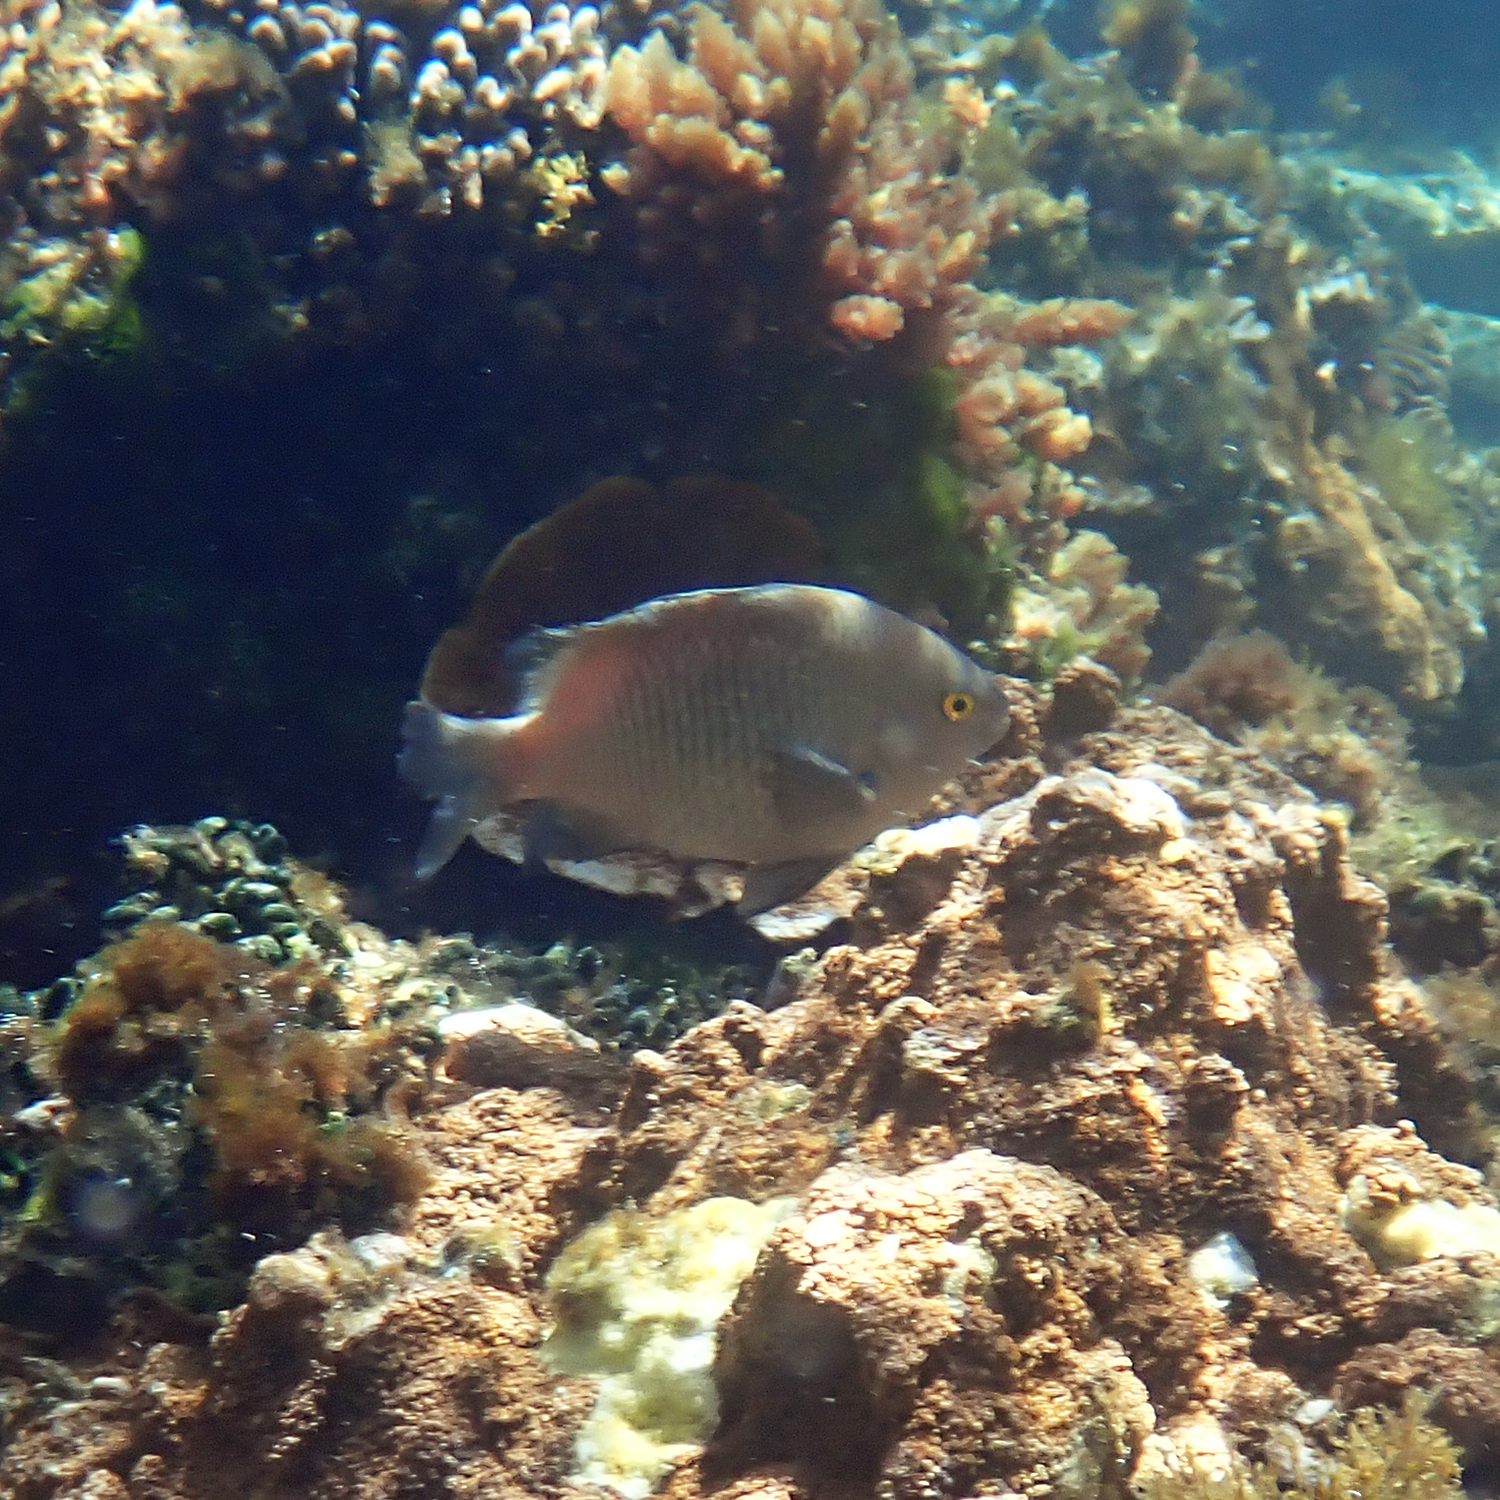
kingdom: Animalia
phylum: Chordata
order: Perciformes
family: Pomacentridae
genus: Stegastes
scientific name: Stegastes fasciolatus
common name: Pacific gregory
